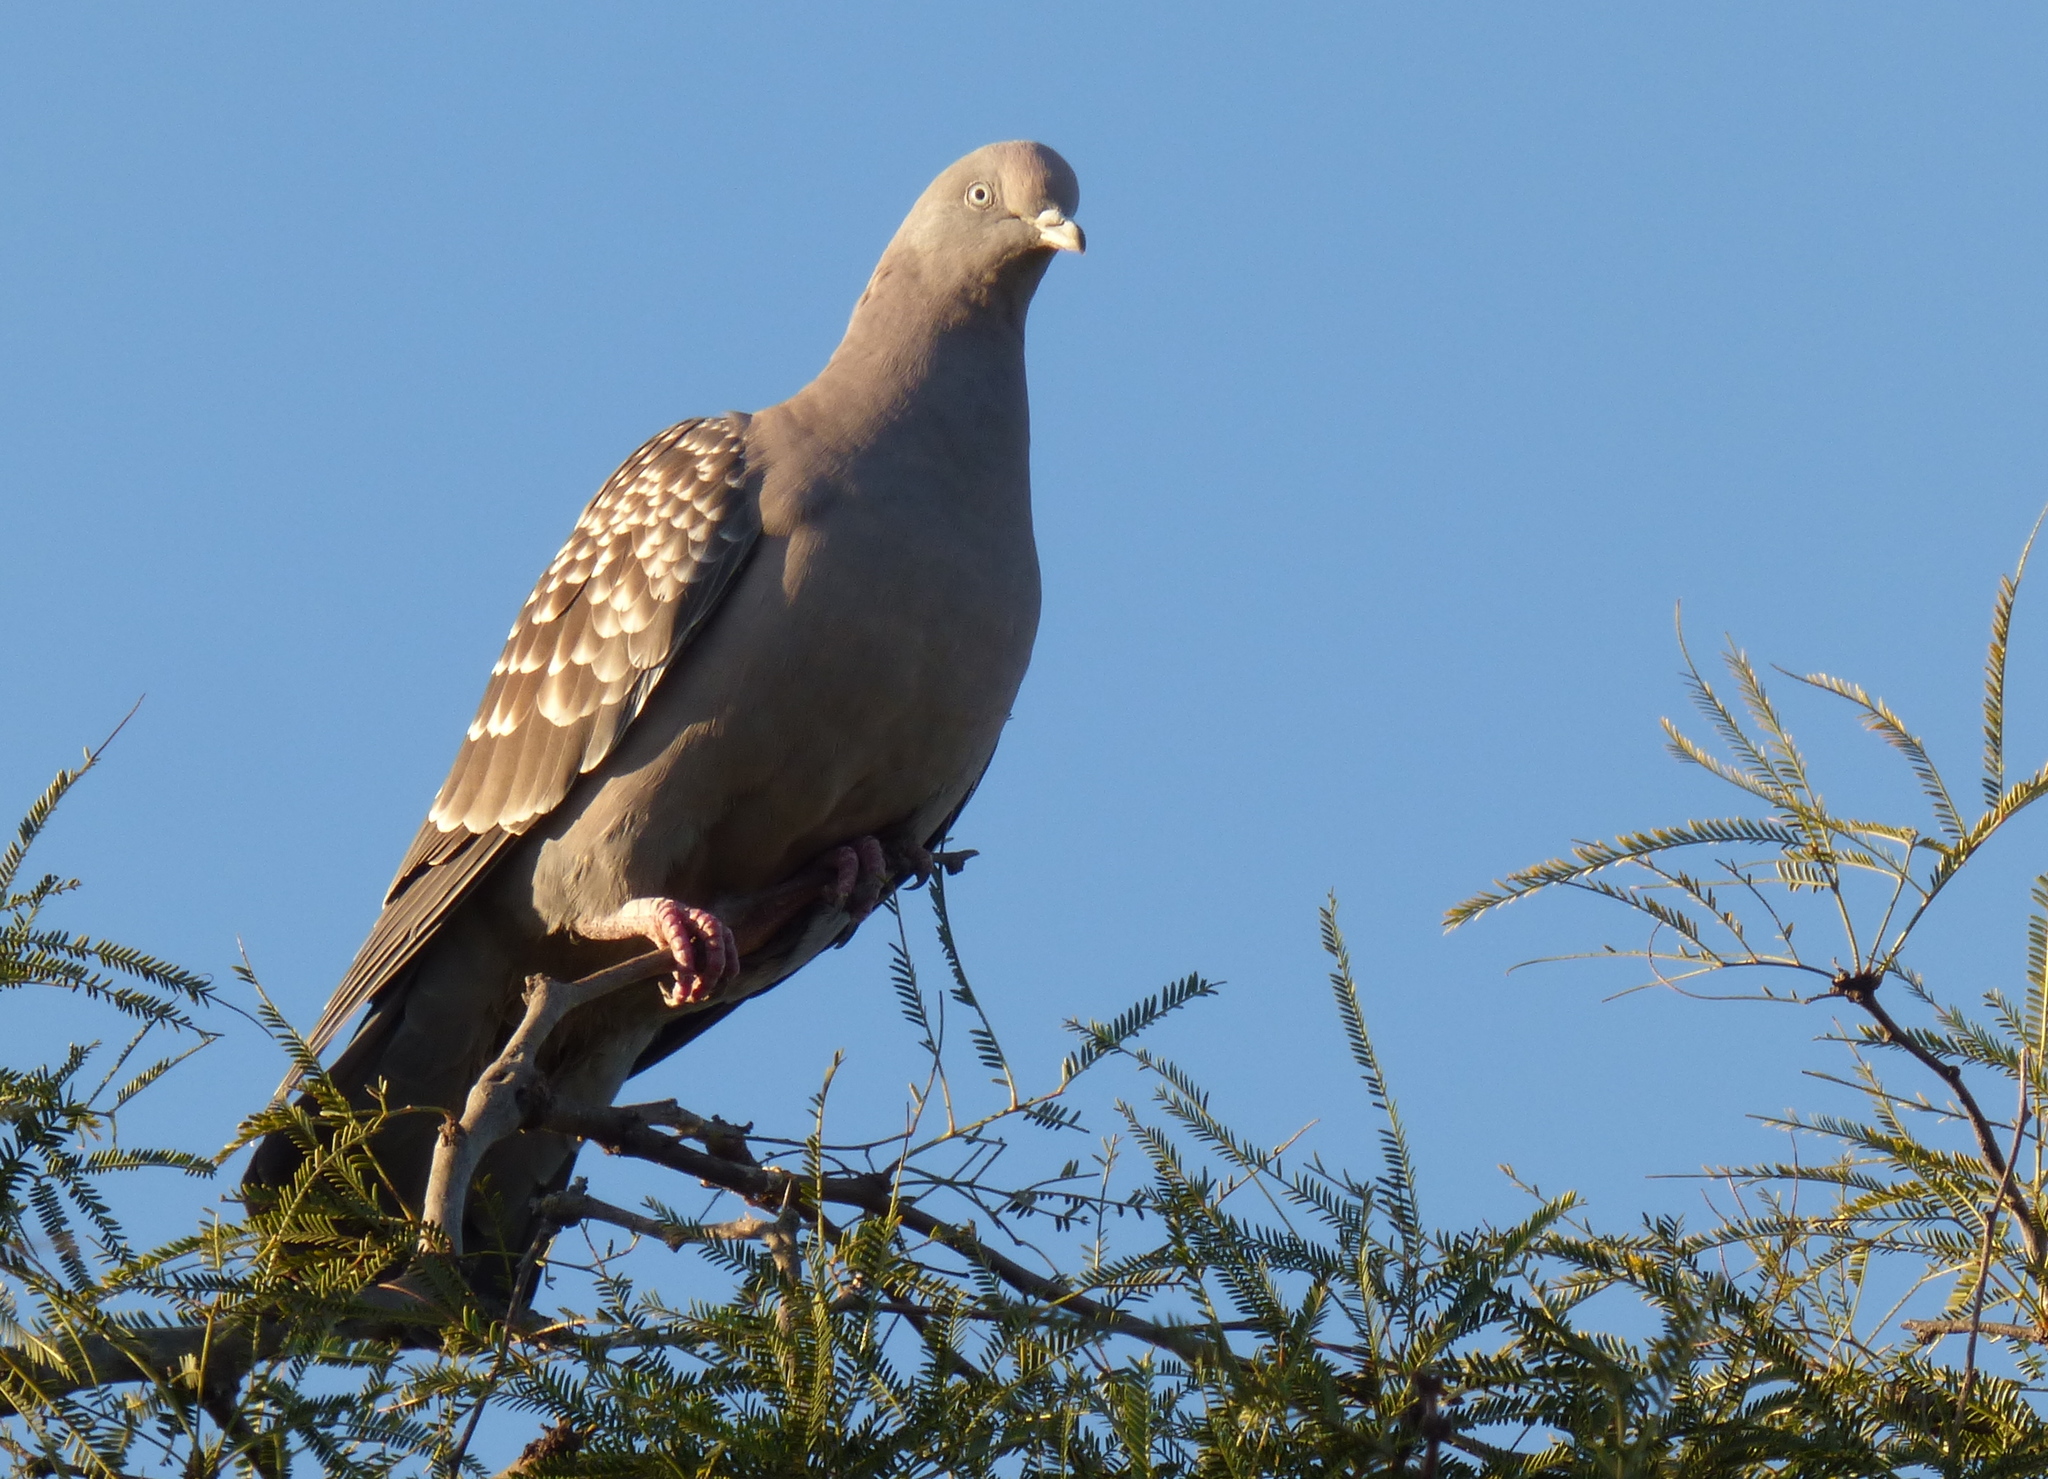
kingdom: Animalia
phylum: Chordata
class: Aves
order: Columbiformes
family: Columbidae
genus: Patagioenas
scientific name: Patagioenas maculosa
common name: Spot-winged pigeon
